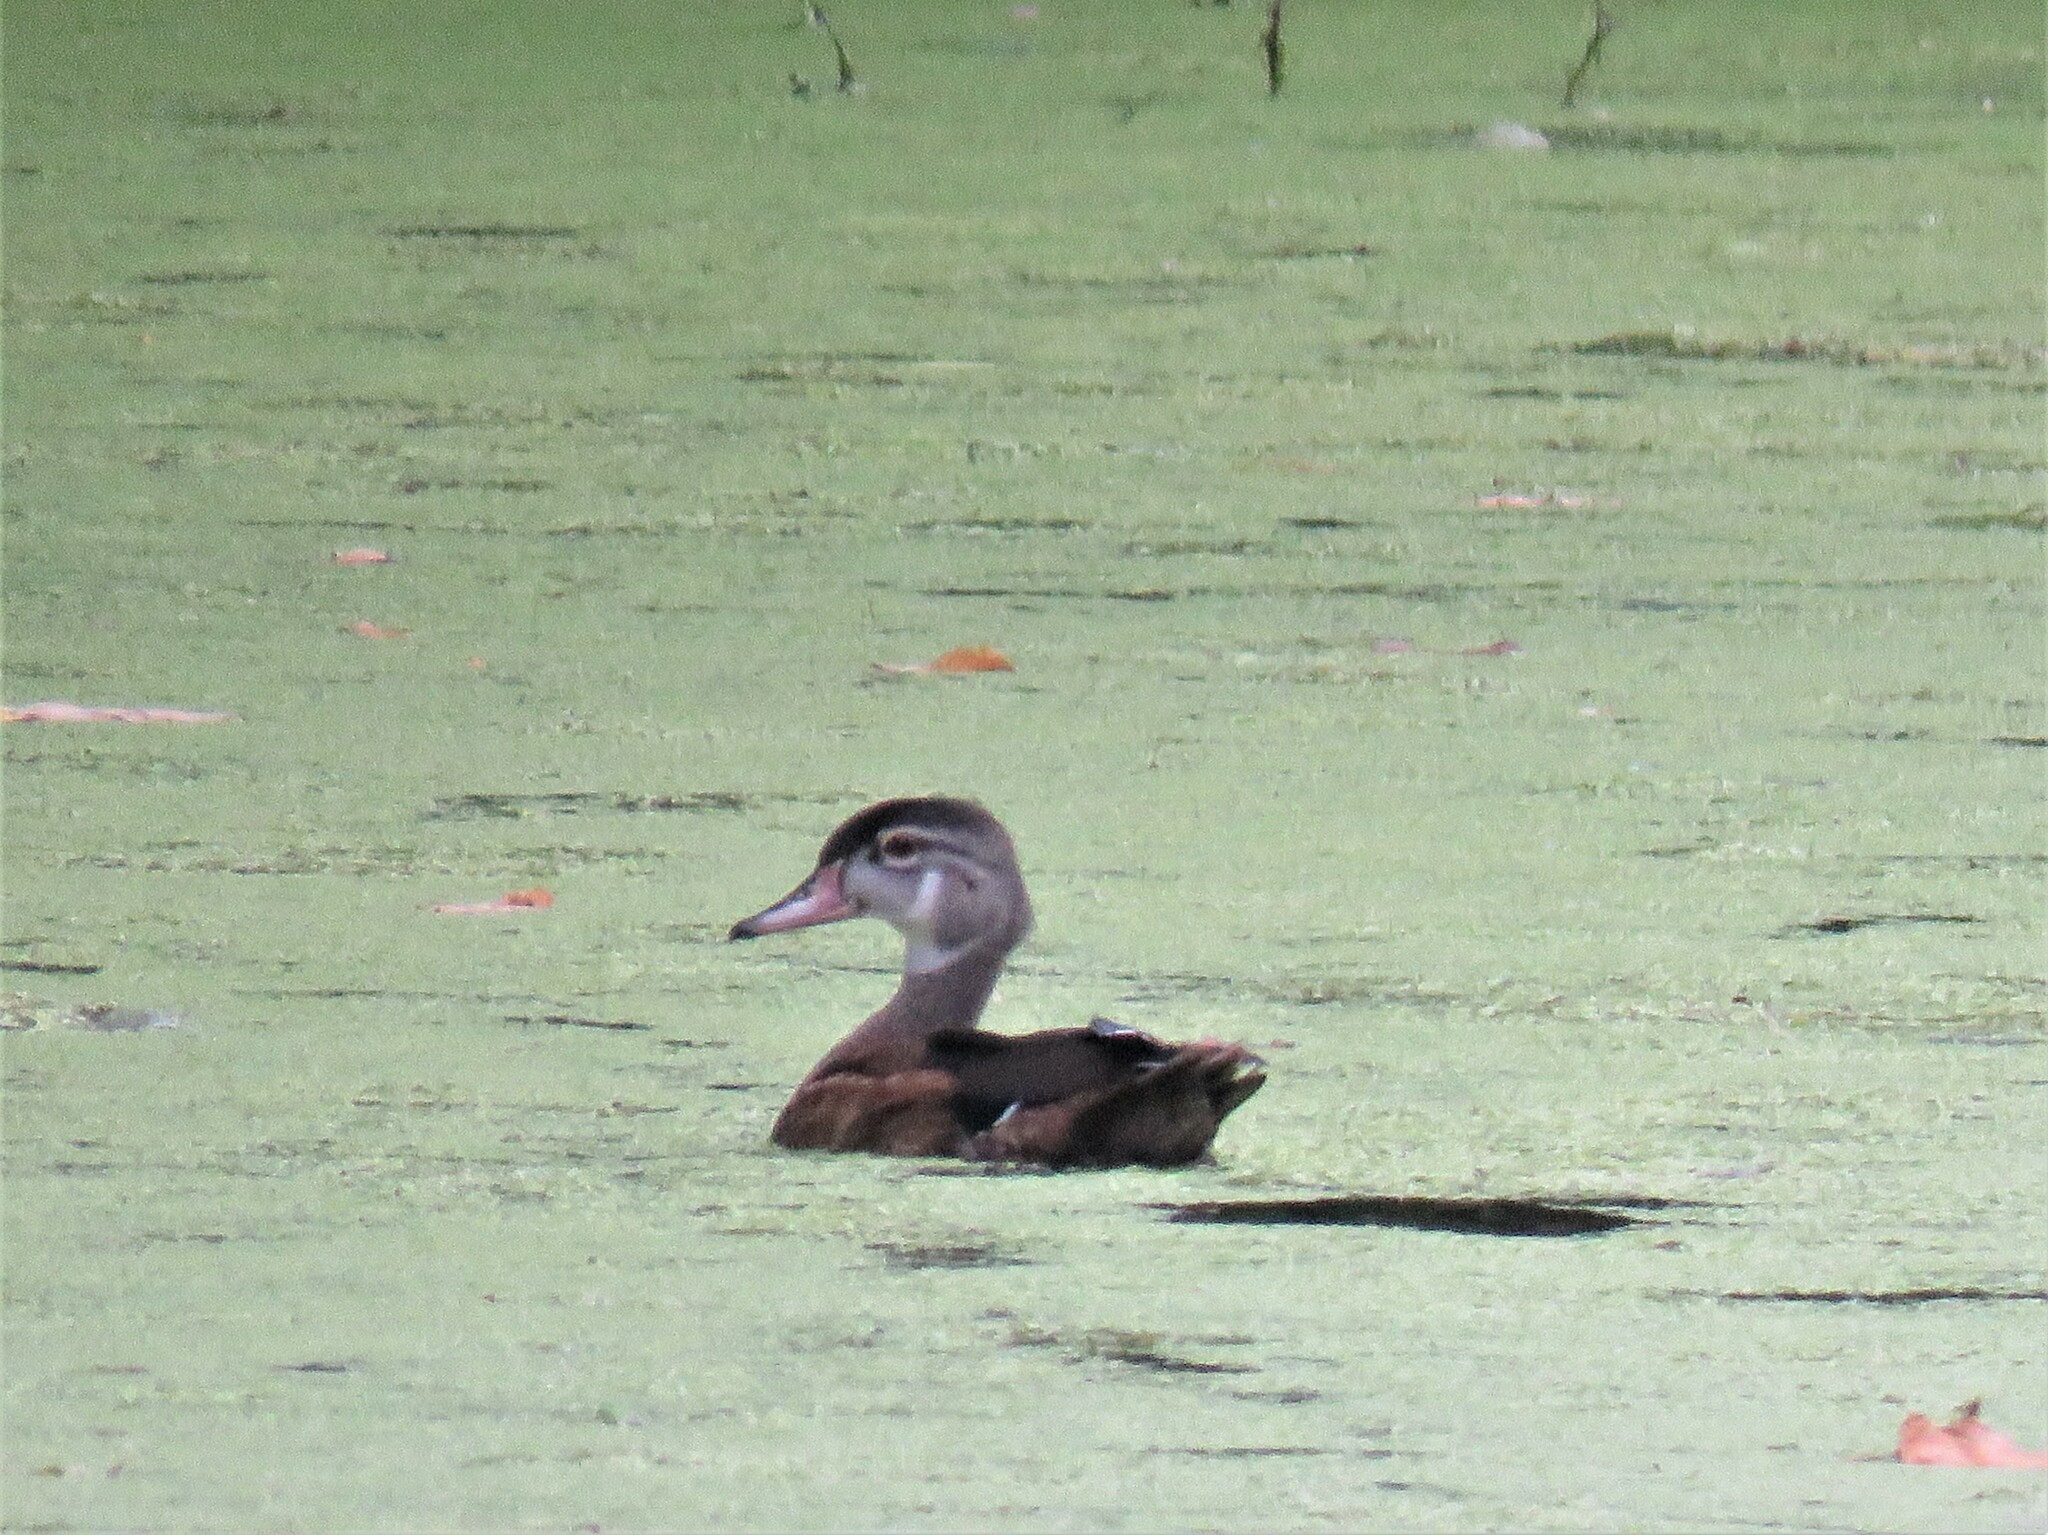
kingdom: Animalia
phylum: Chordata
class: Aves
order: Anseriformes
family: Anatidae
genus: Aix
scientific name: Aix sponsa
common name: Wood duck
